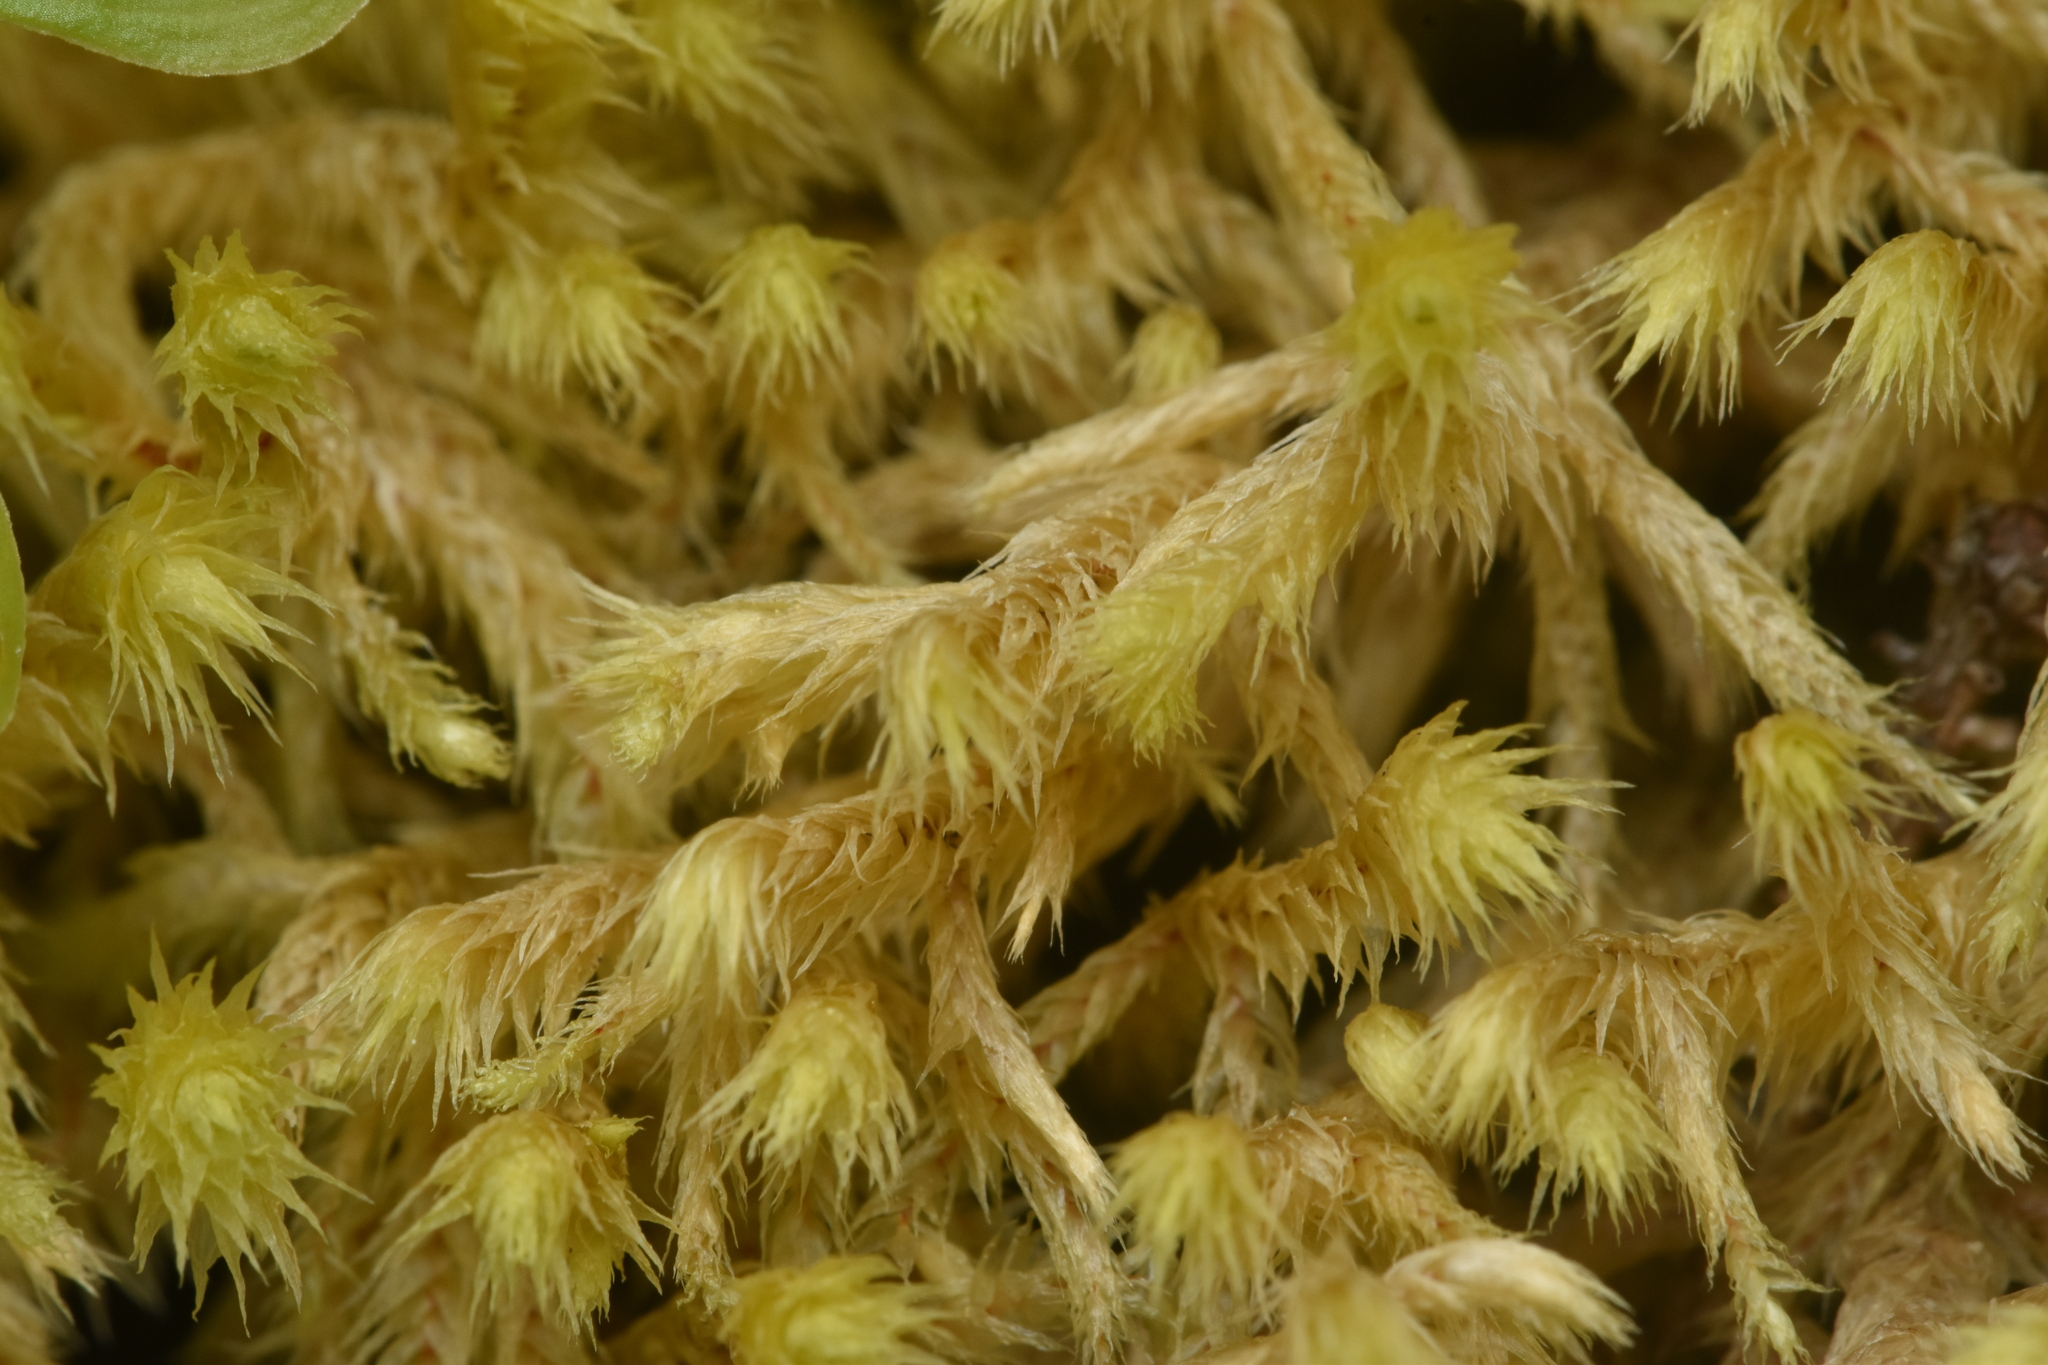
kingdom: Plantae
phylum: Bryophyta
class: Bryopsida
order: Hypnales
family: Hylocomiaceae
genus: Hylocomiadelphus
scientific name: Hylocomiadelphus triquetrus
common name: Rough goose neck moss
